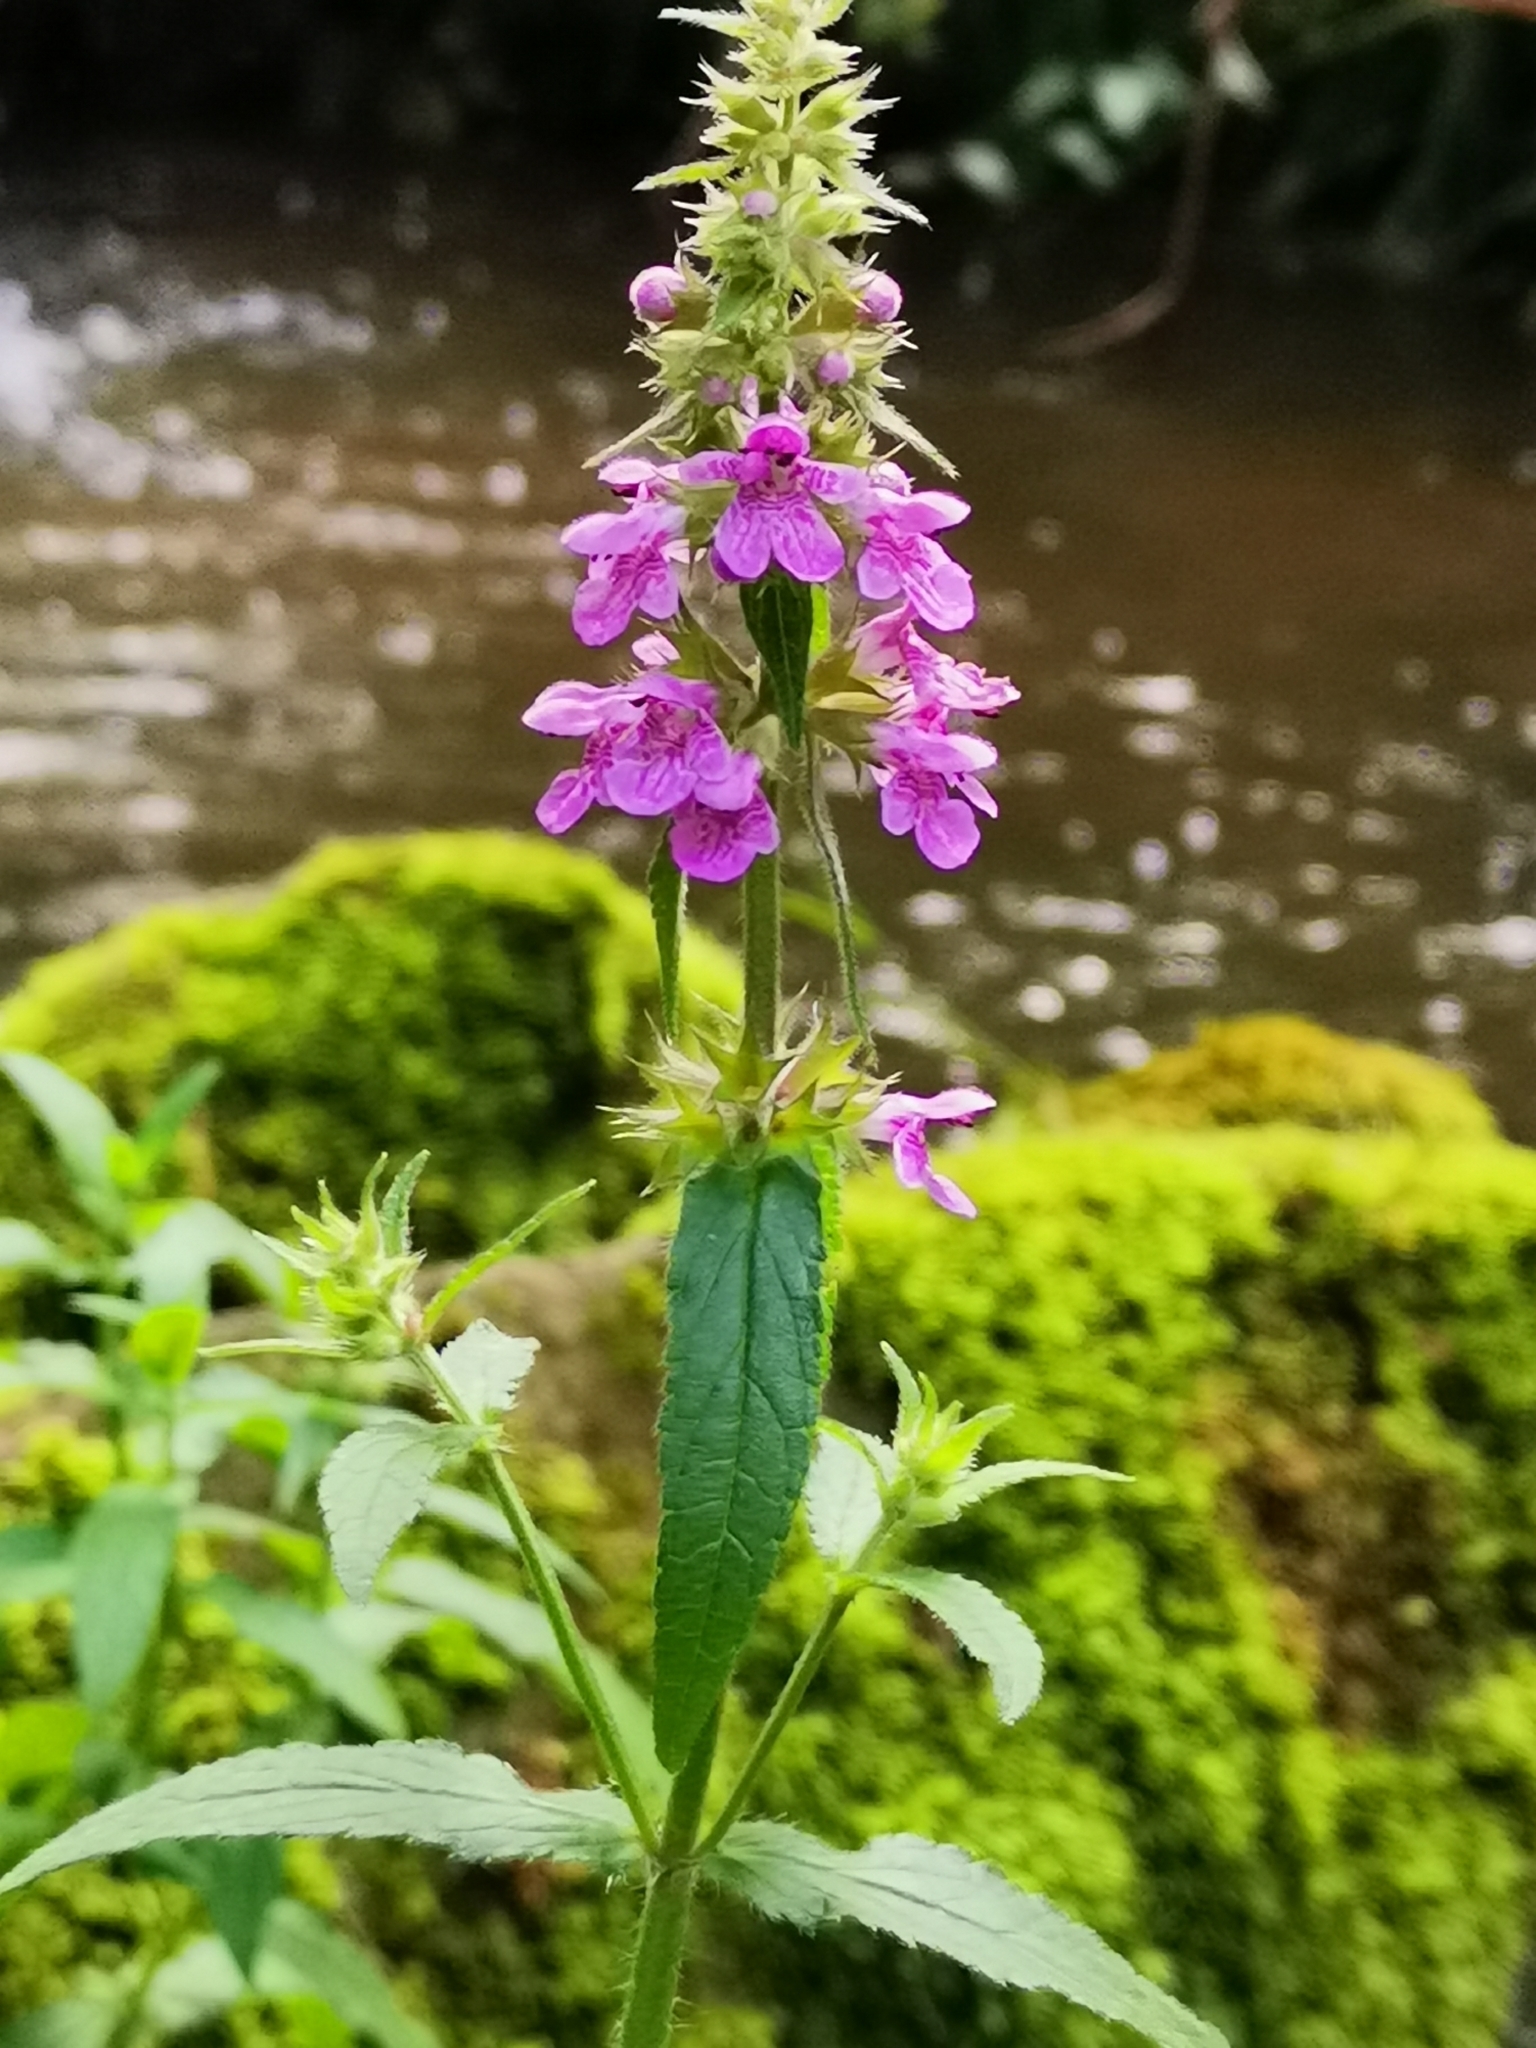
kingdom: Plantae
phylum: Tracheophyta
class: Magnoliopsida
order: Lamiales
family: Lamiaceae
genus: Stachys
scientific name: Stachys palustris
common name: Marsh woundwort
